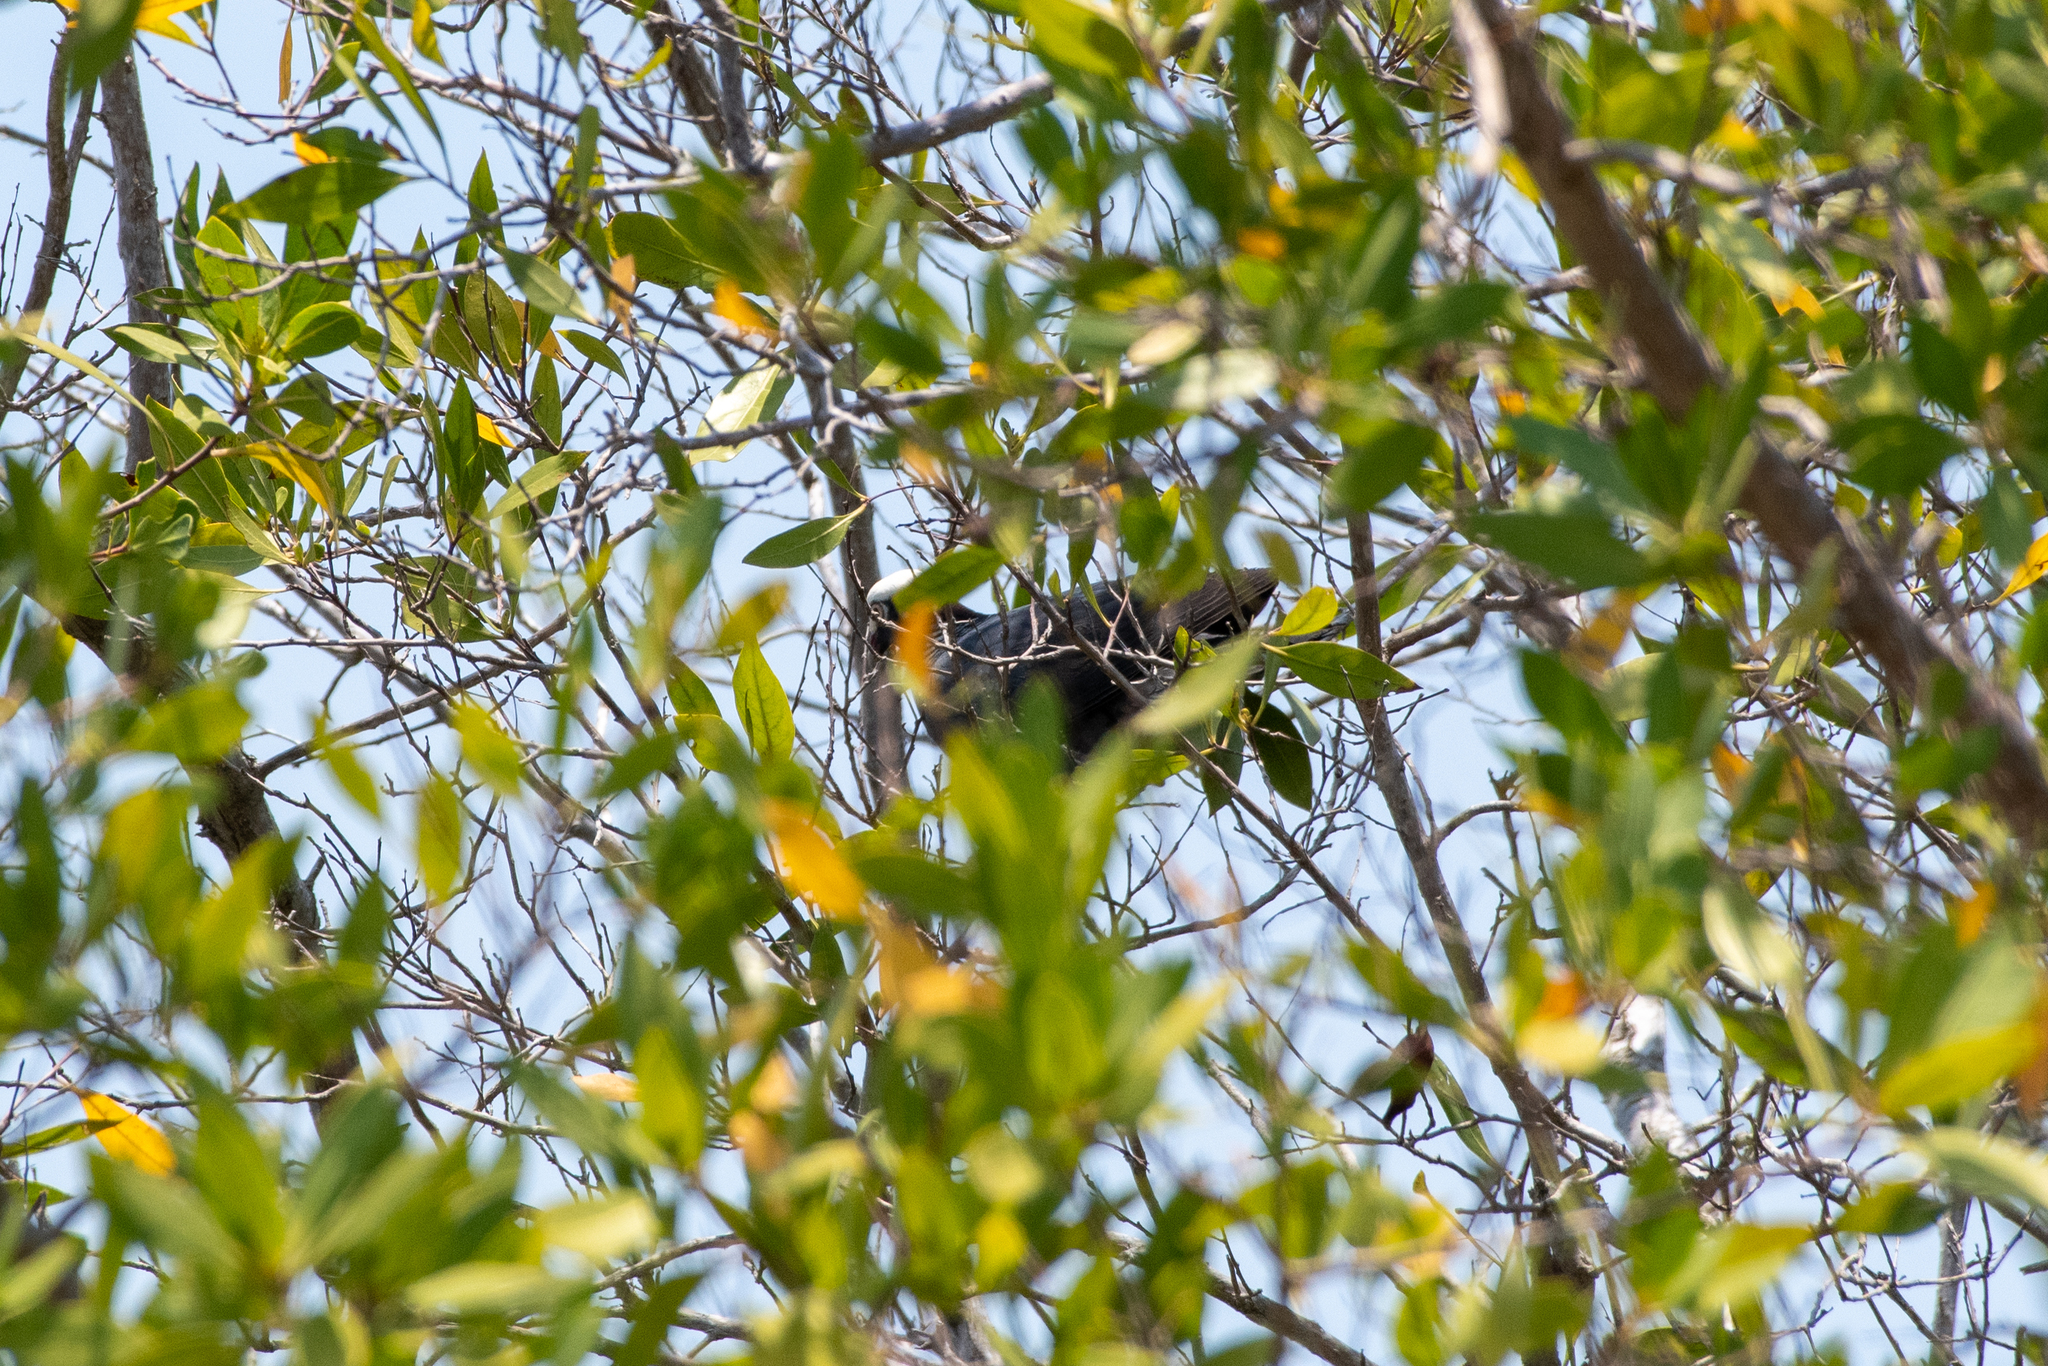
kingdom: Animalia
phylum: Chordata
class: Aves
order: Columbiformes
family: Columbidae
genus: Patagioenas
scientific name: Patagioenas leucocephala
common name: White-crowned pigeon
